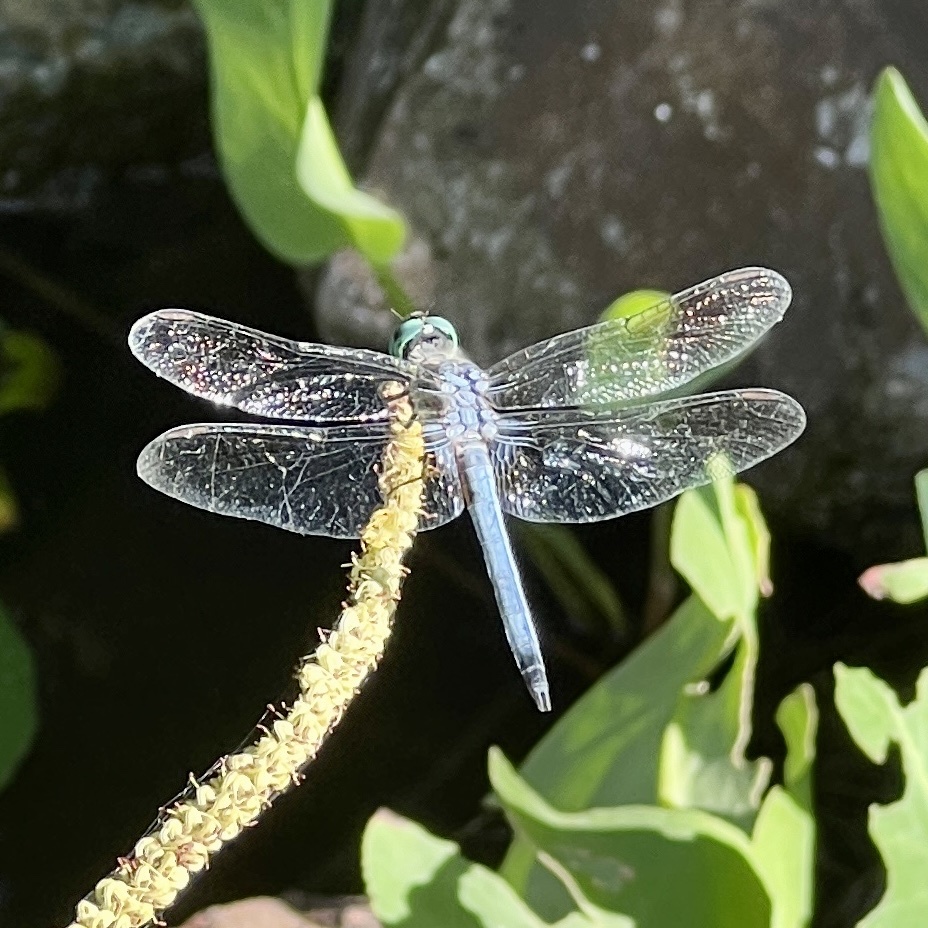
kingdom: Animalia
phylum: Arthropoda
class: Insecta
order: Odonata
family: Libellulidae
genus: Pachydiplax
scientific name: Pachydiplax longipennis
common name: Blue dasher
